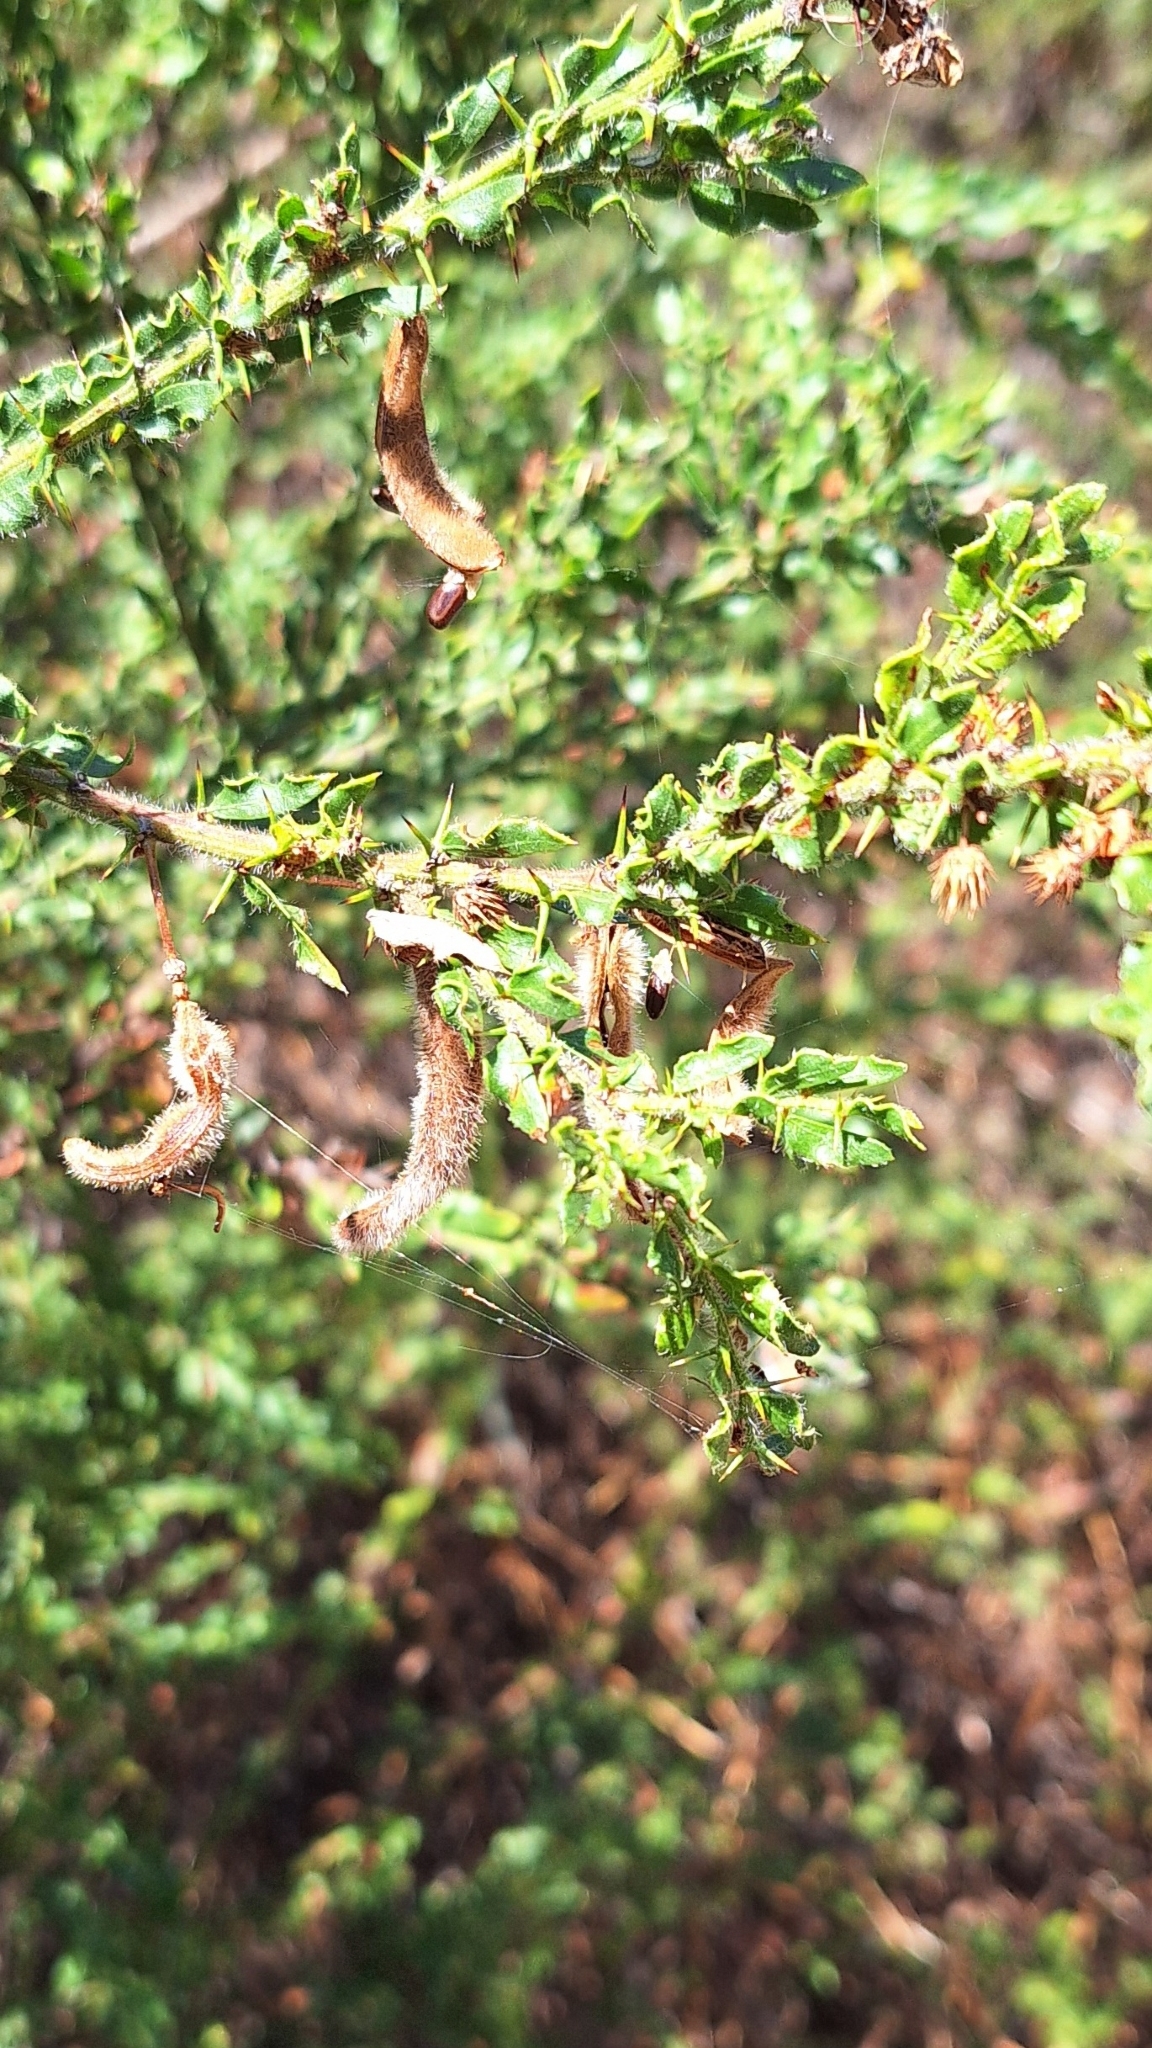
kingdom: Plantae
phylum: Tracheophyta
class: Magnoliopsida
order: Fabales
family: Fabaceae
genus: Acacia
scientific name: Acacia paradoxa
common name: Paradox acacia
